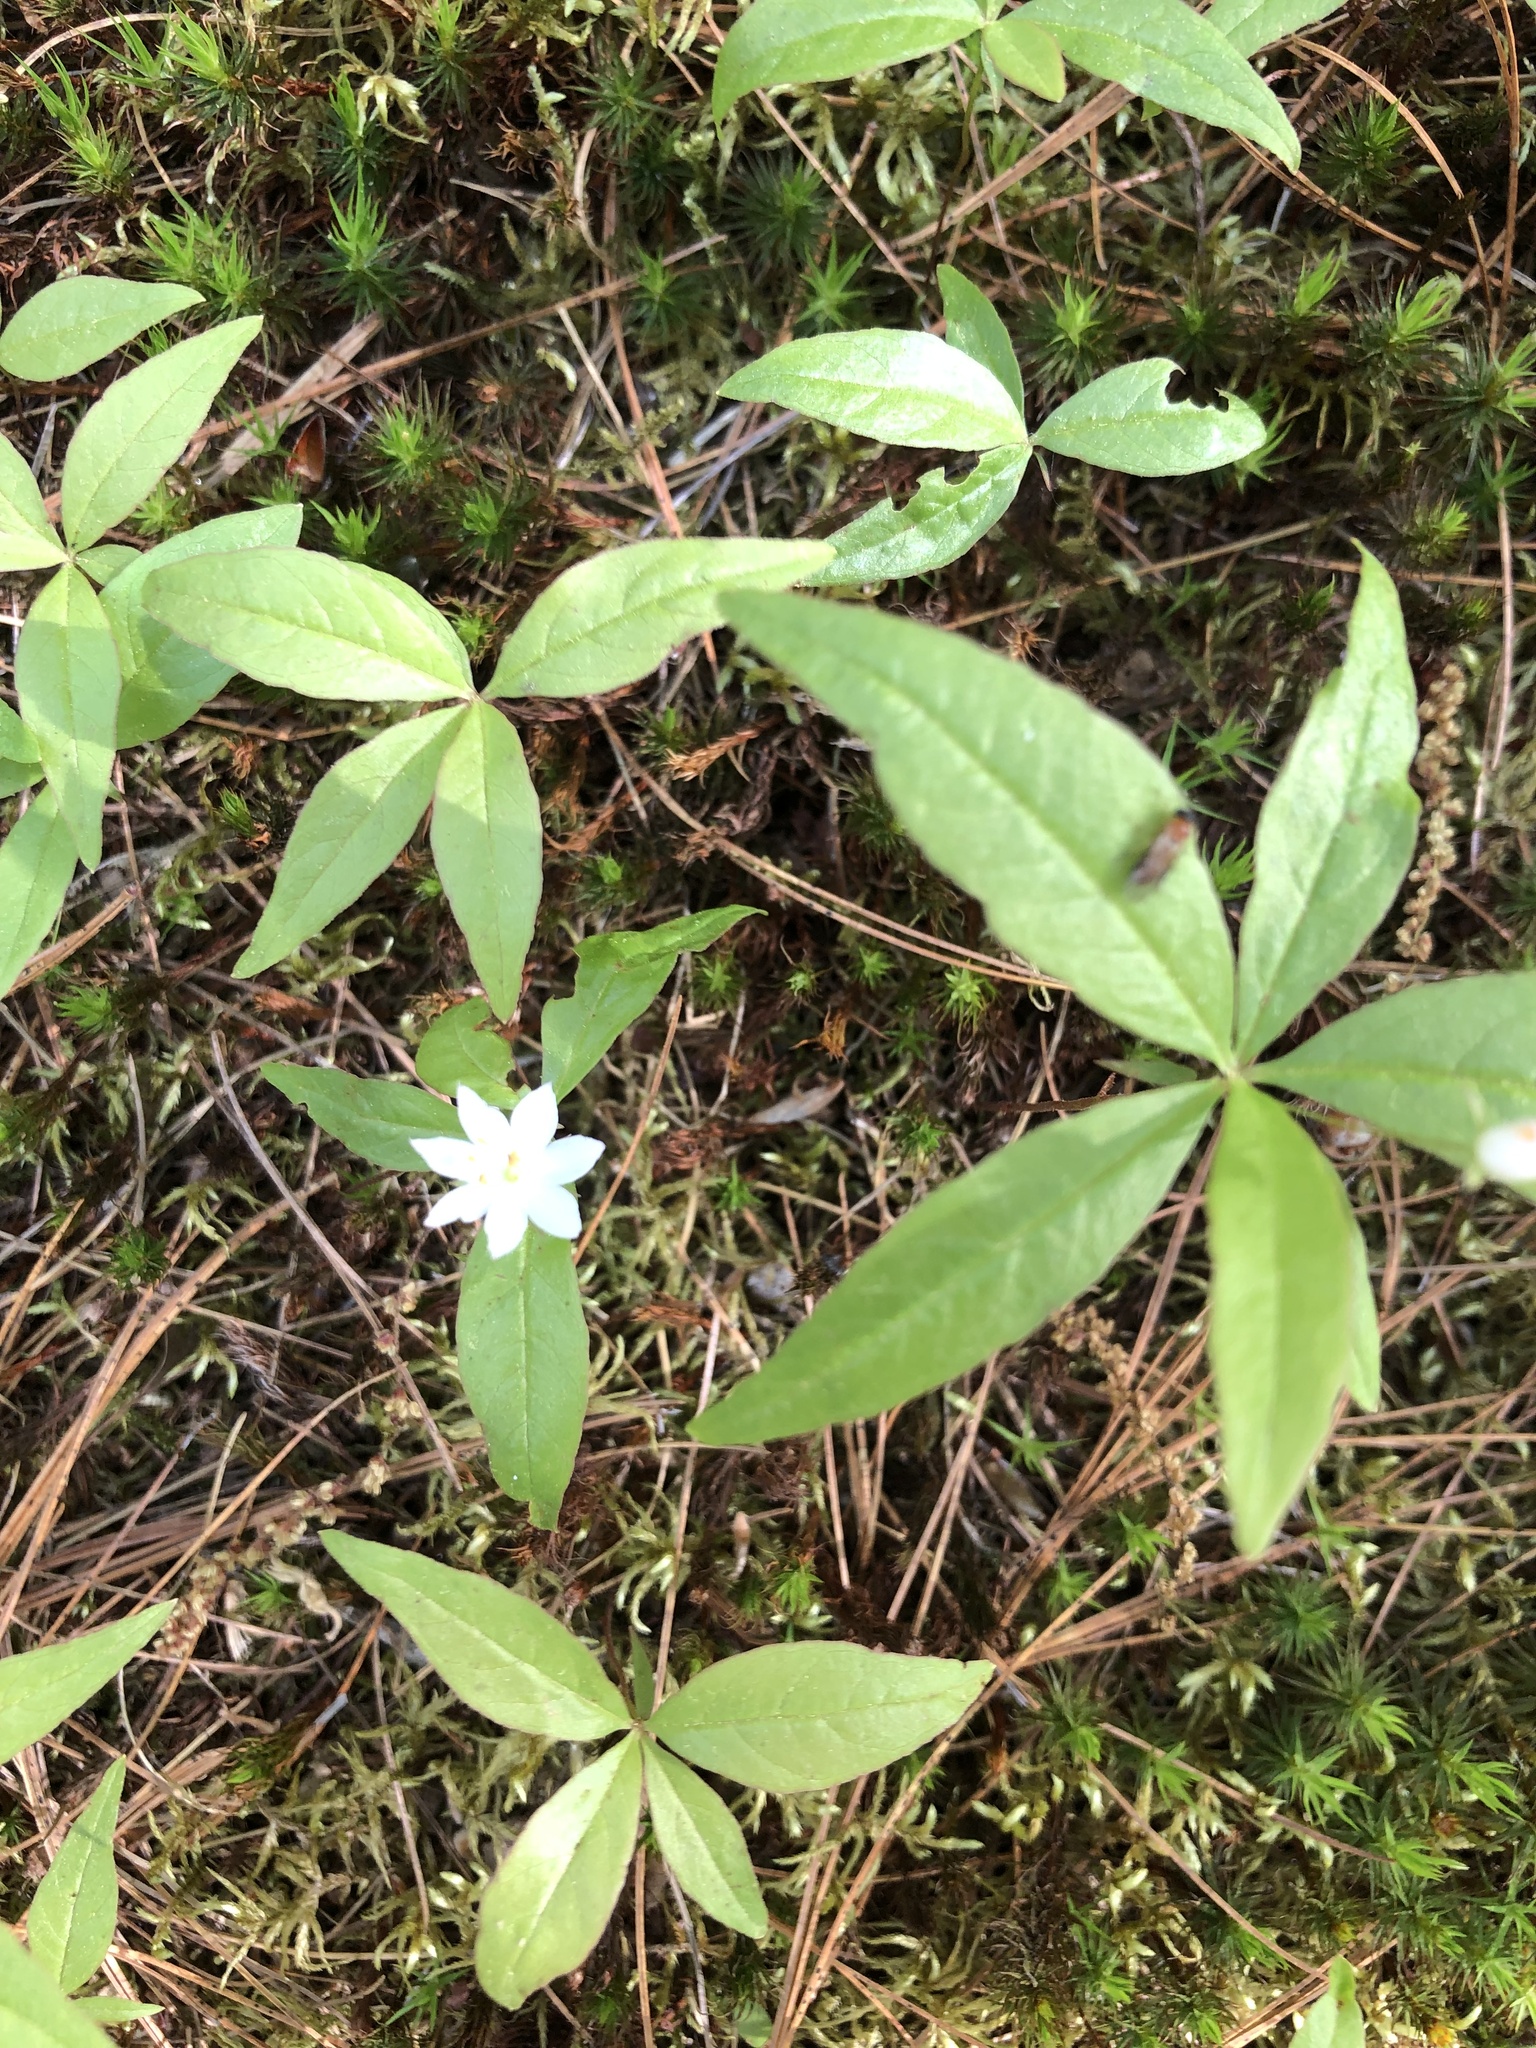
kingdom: Plantae
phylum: Tracheophyta
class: Magnoliopsida
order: Ericales
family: Primulaceae
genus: Lysimachia
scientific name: Lysimachia borealis
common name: American starflower
